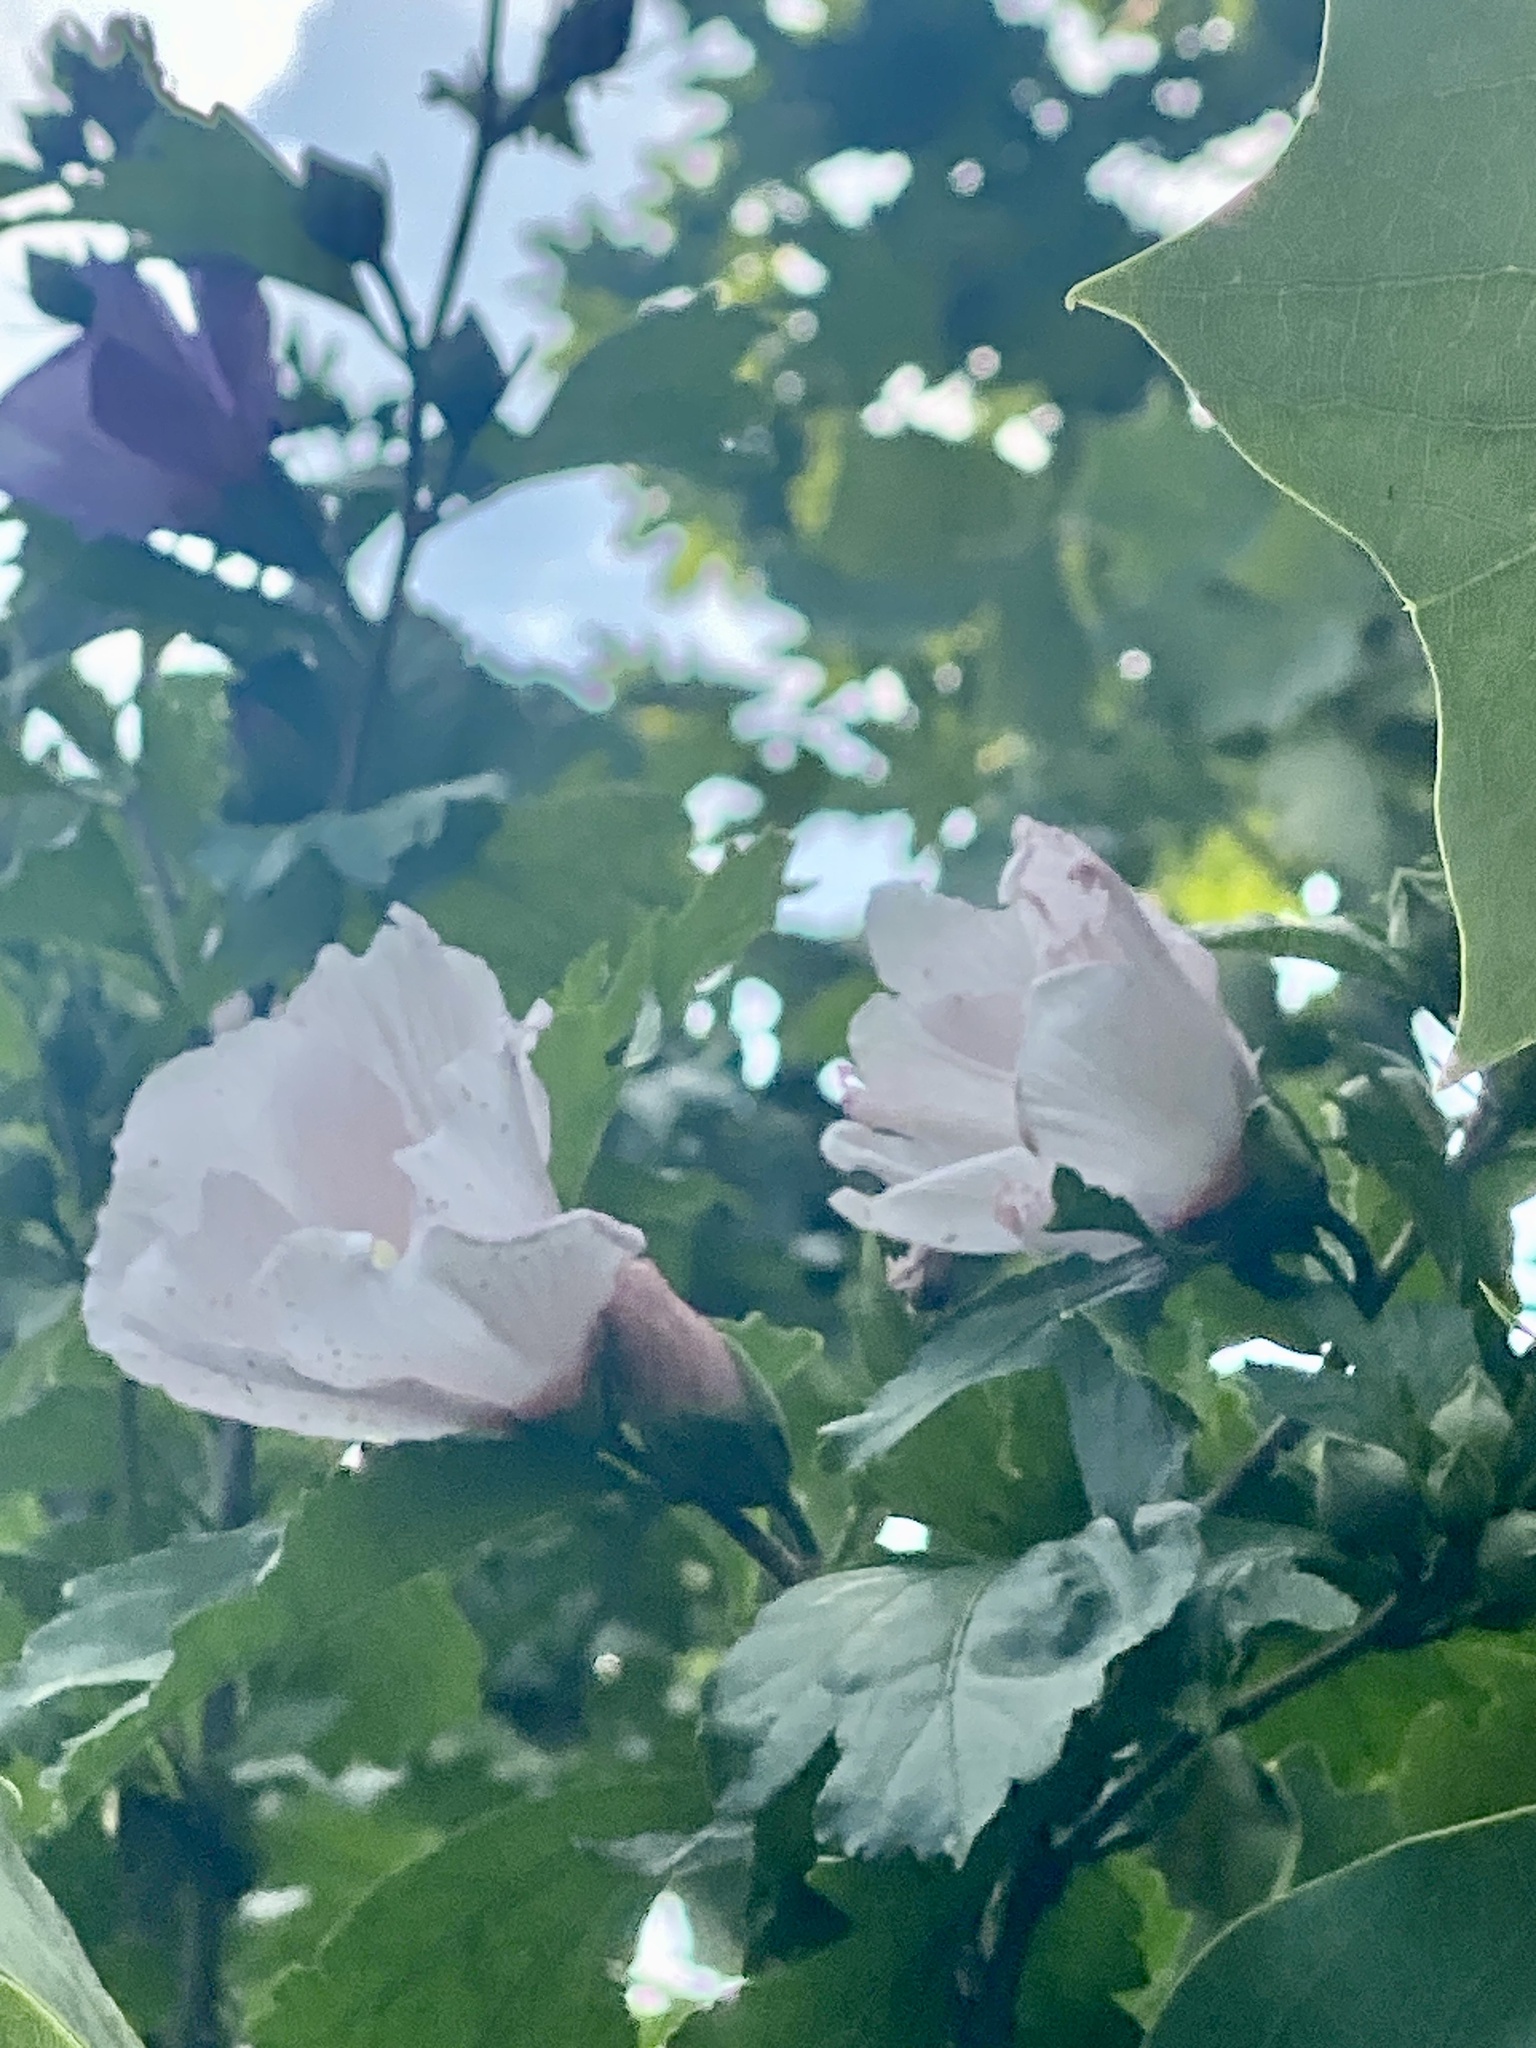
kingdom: Plantae
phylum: Tracheophyta
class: Magnoliopsida
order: Malvales
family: Malvaceae
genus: Hibiscus
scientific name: Hibiscus syriacus
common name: Syrian ketmia
